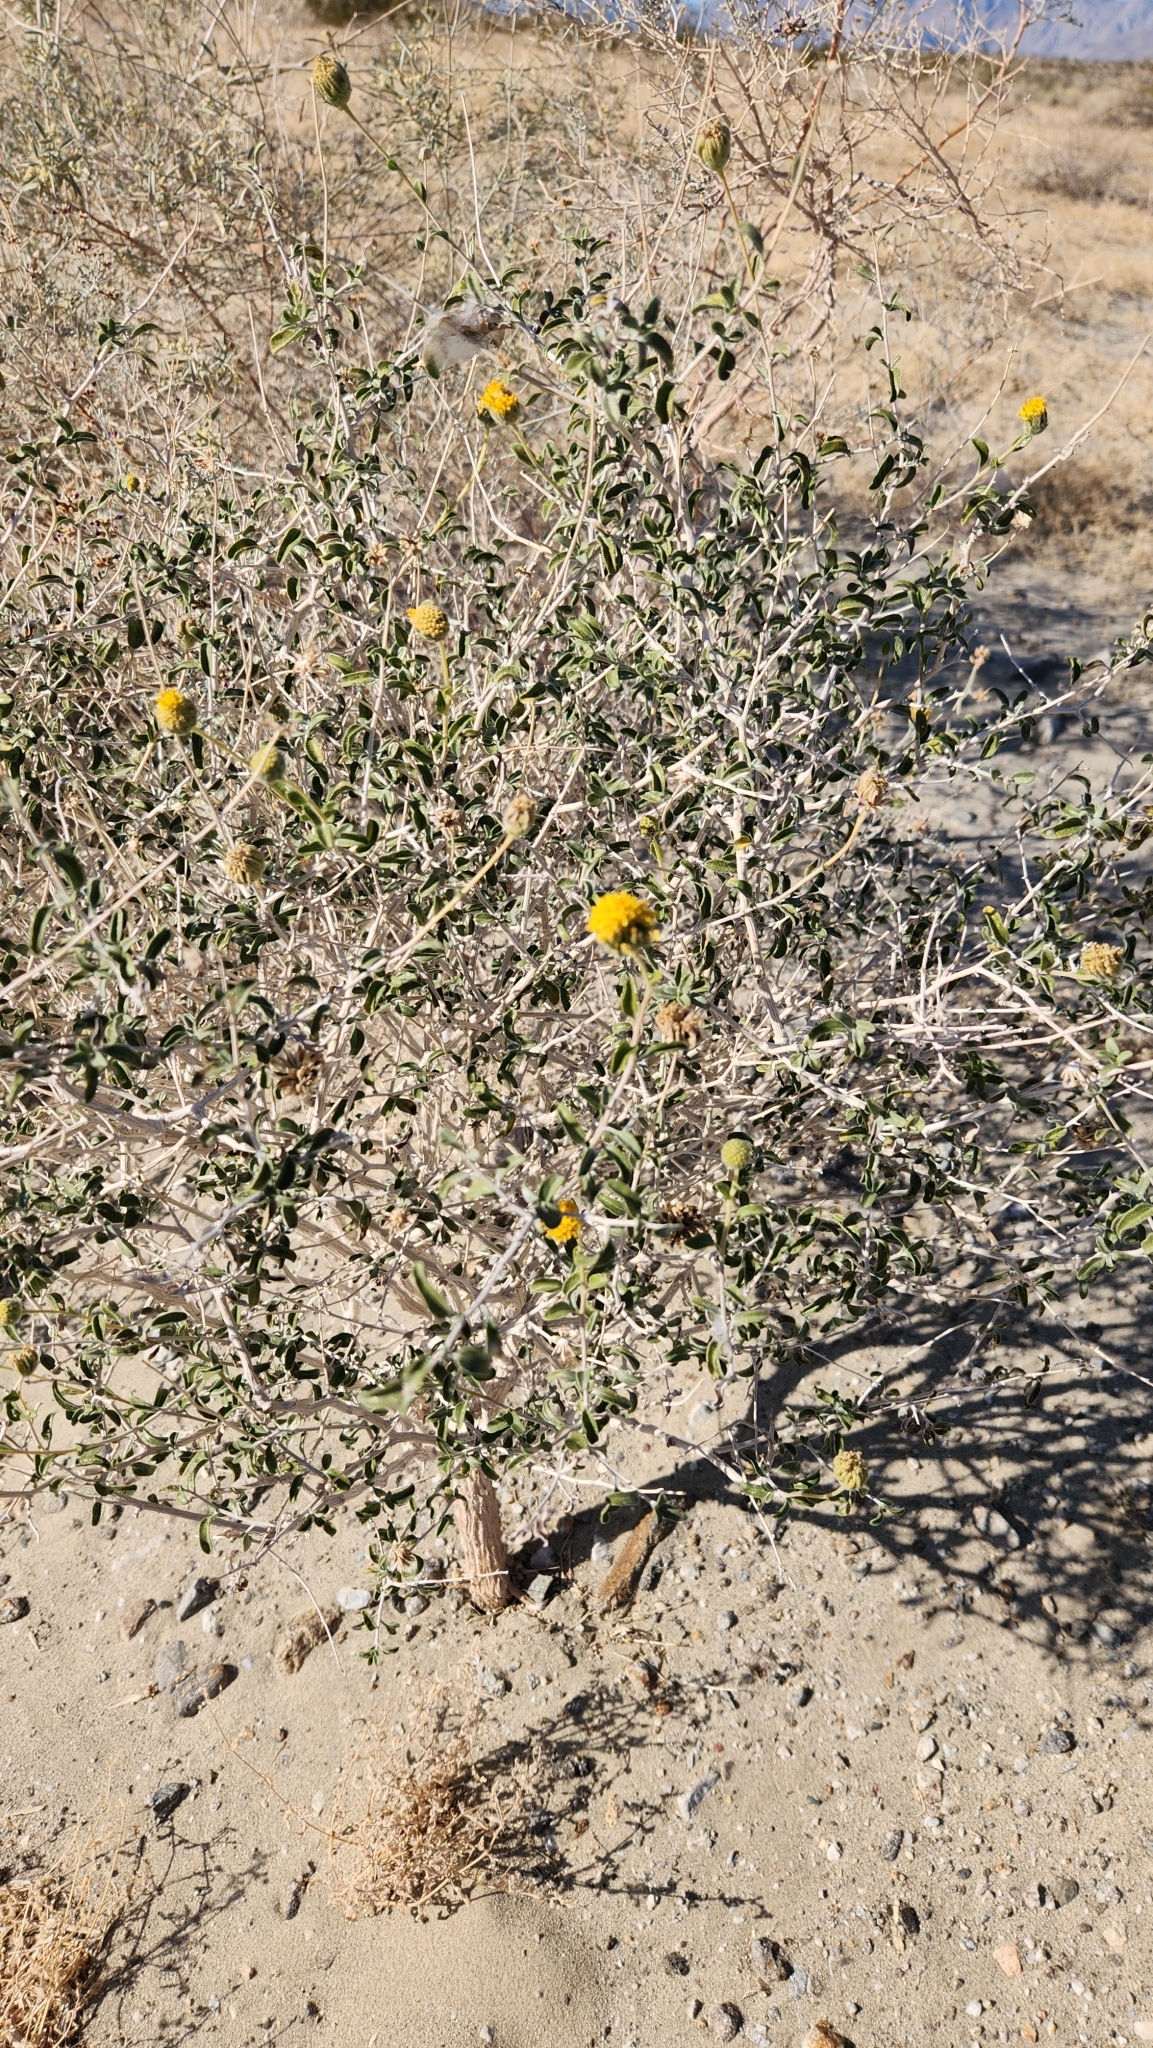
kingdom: Plantae
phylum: Tracheophyta
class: Magnoliopsida
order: Asterales
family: Asteraceae
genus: Encelia
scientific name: Encelia frutescens
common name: Bush encelia
